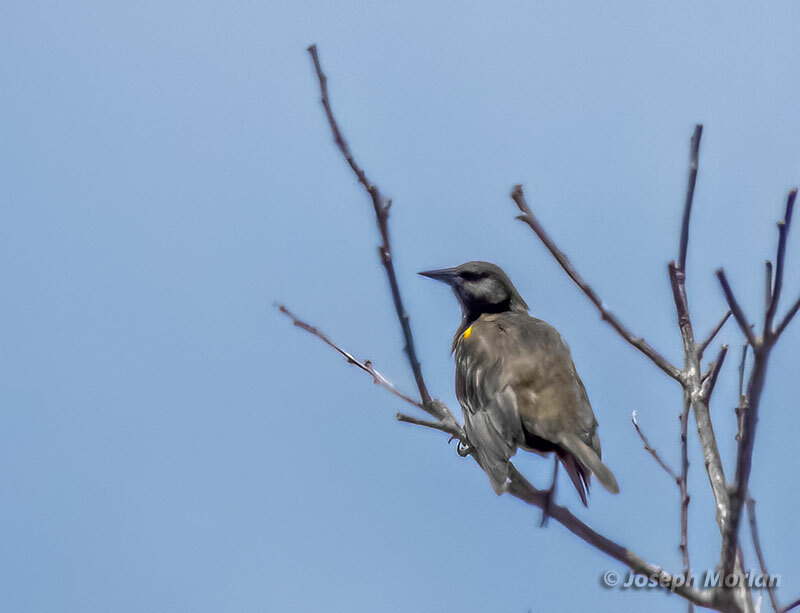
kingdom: Animalia
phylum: Chordata
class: Aves
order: Passeriformes
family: Icteridae
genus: Pseudoleistes
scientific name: Pseudoleistes virescens
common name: Brown-and-yellow marshbird
